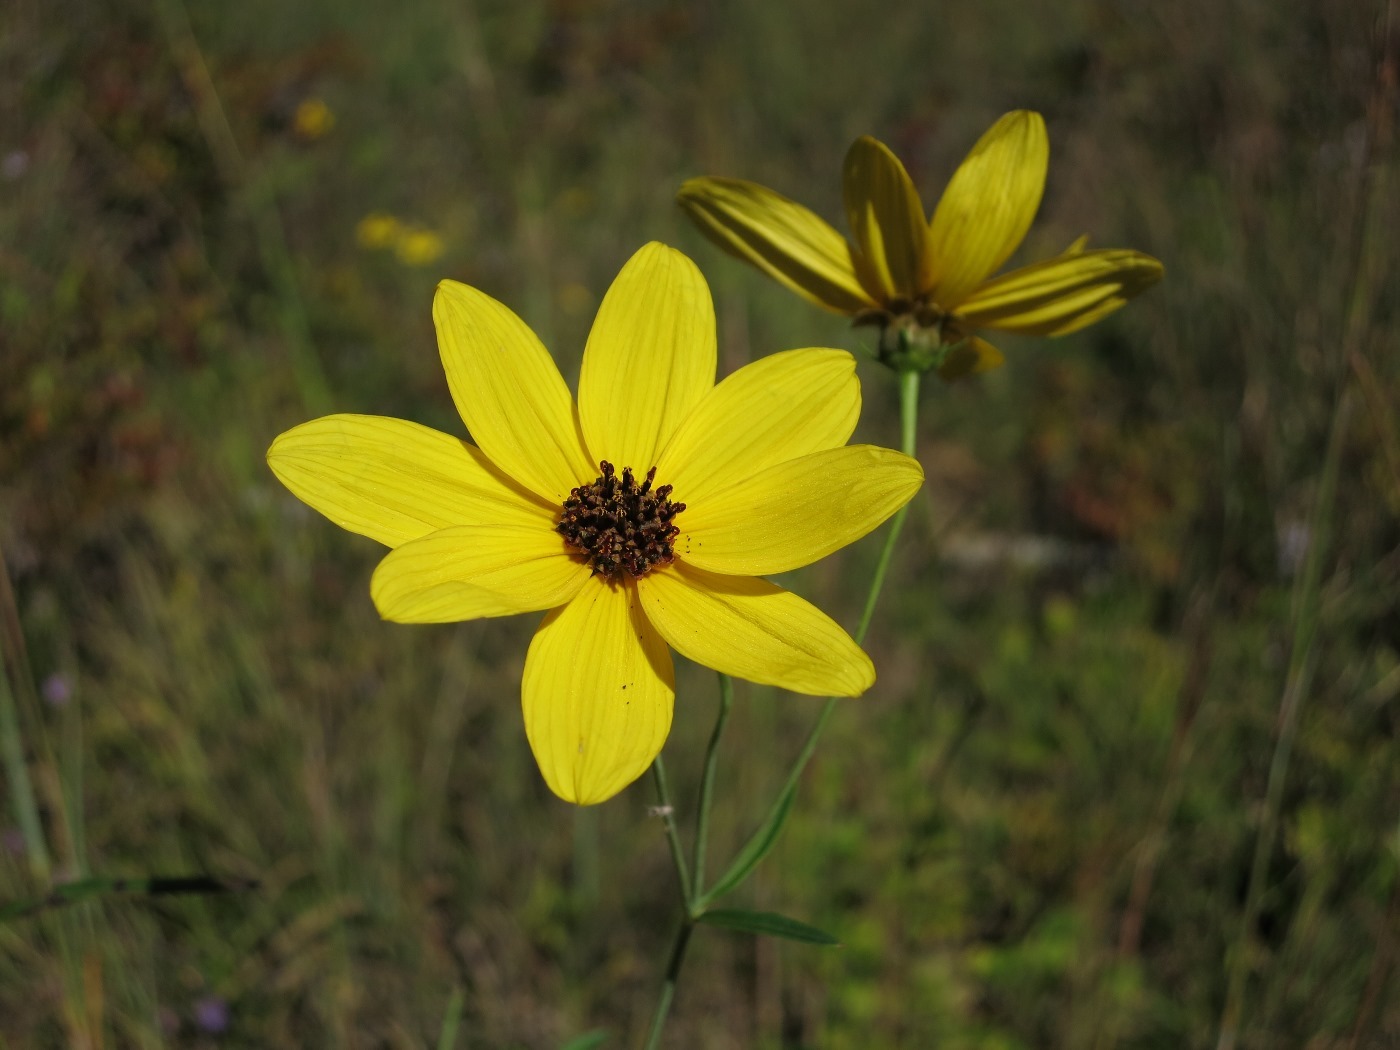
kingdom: Plantae
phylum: Tracheophyta
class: Magnoliopsida
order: Asterales
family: Asteraceae
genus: Coreopsis
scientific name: Coreopsis tripteris
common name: Tall coreopsis
